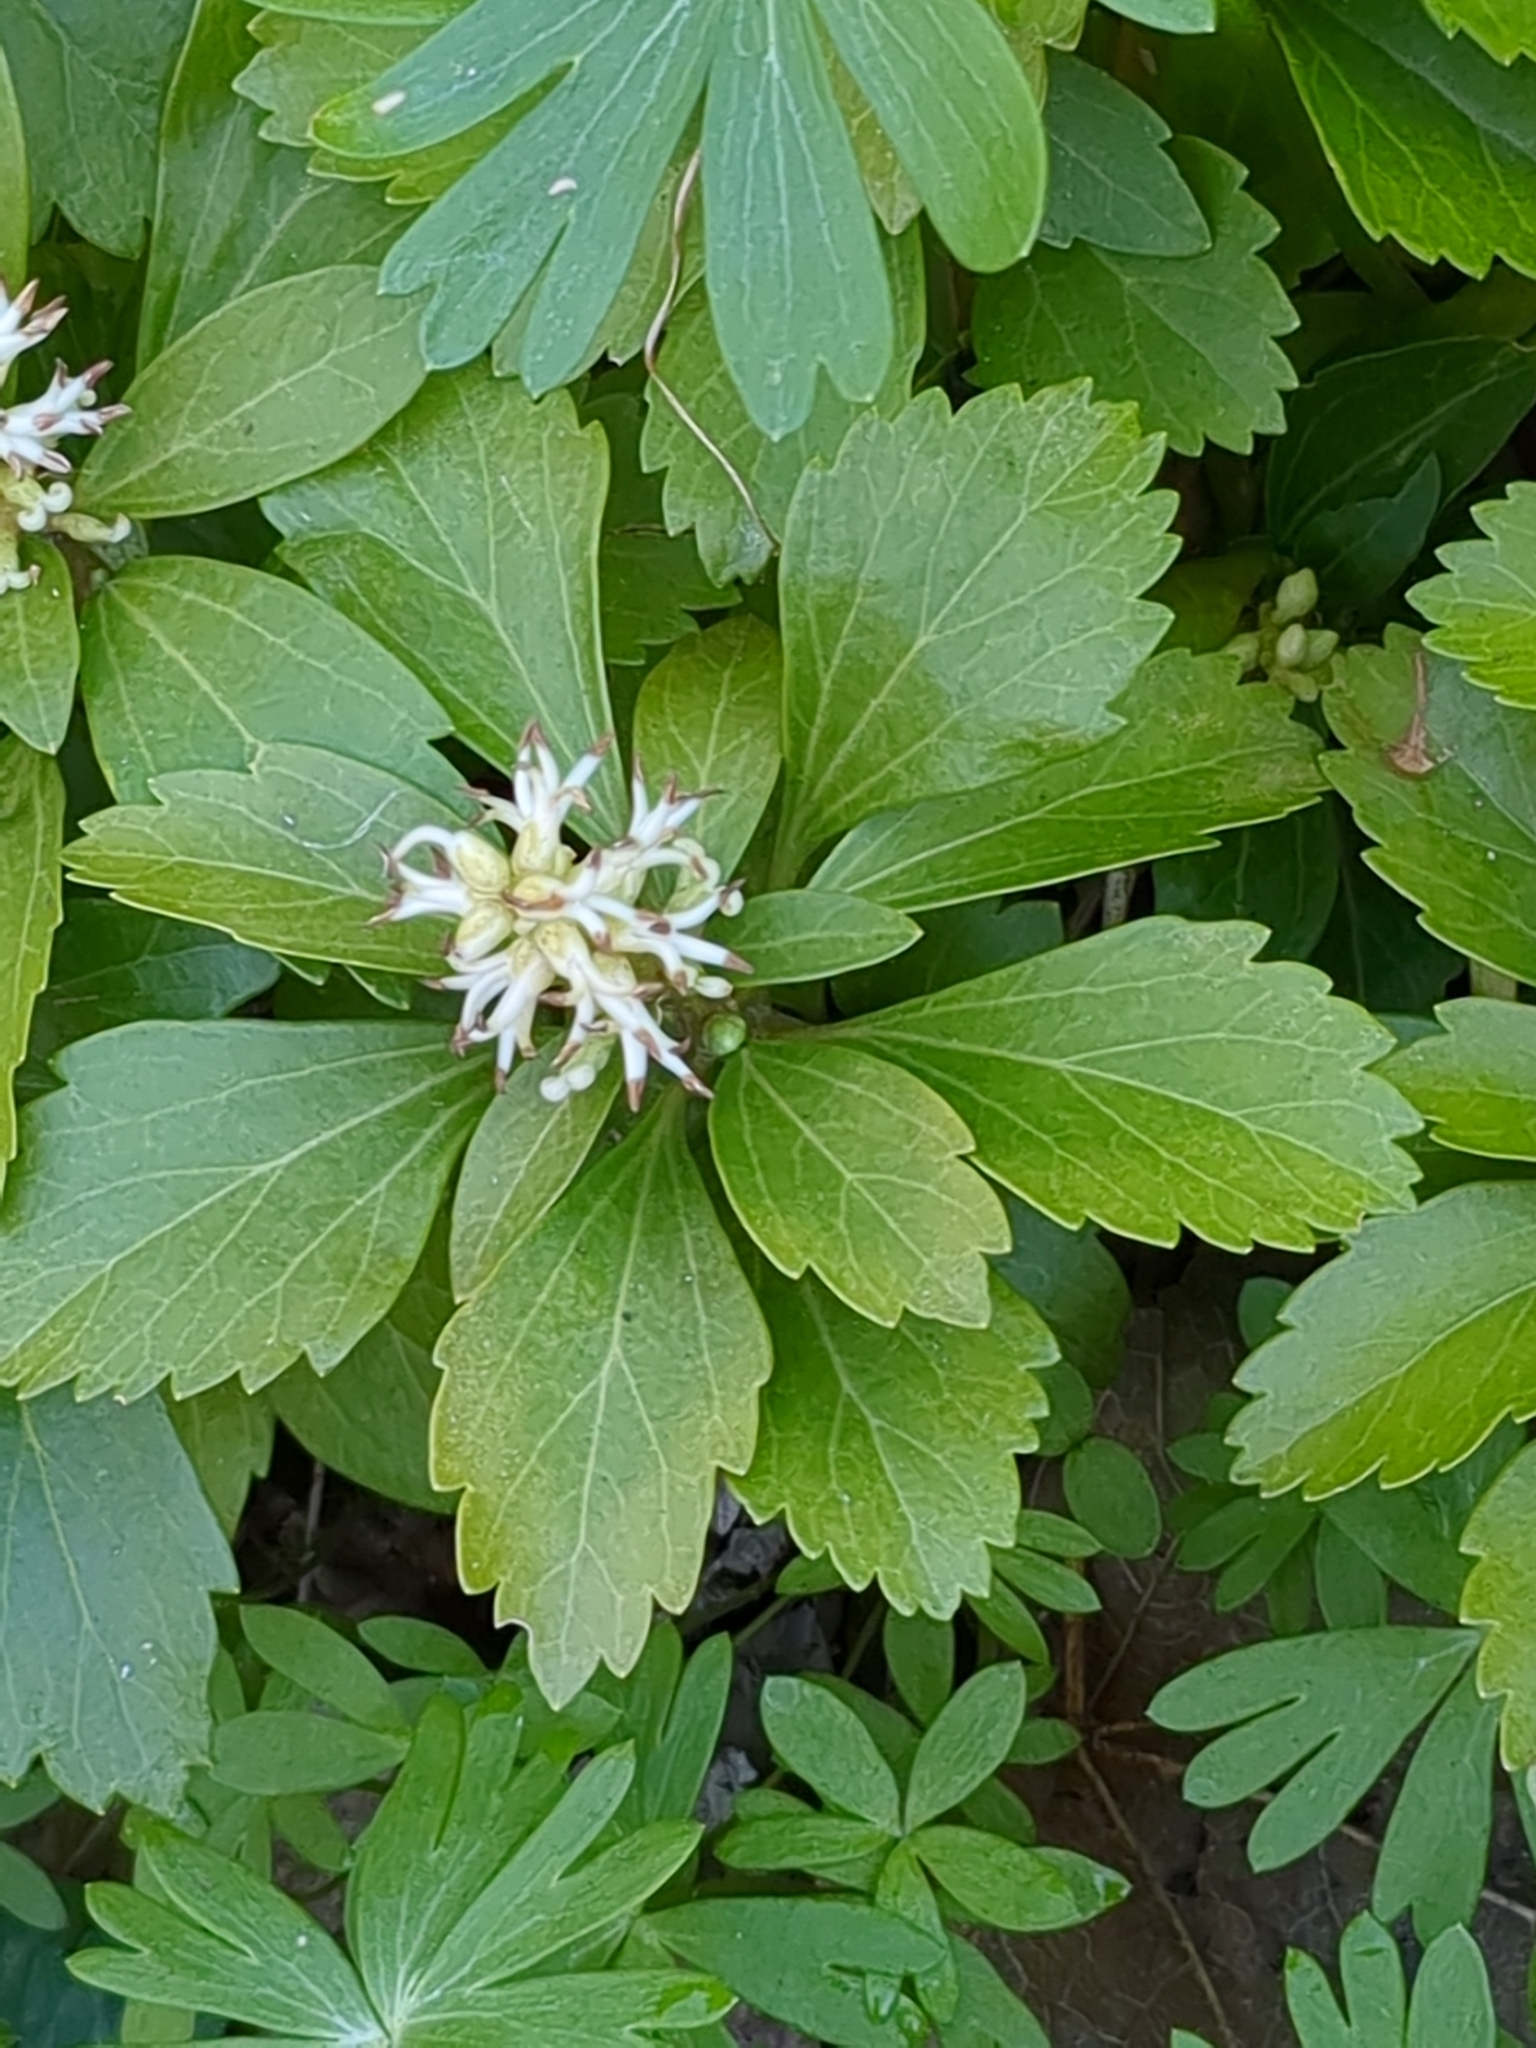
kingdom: Plantae
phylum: Tracheophyta
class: Magnoliopsida
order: Buxales
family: Buxaceae
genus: Pachysandra
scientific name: Pachysandra terminalis
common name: Japanese pachysandra
